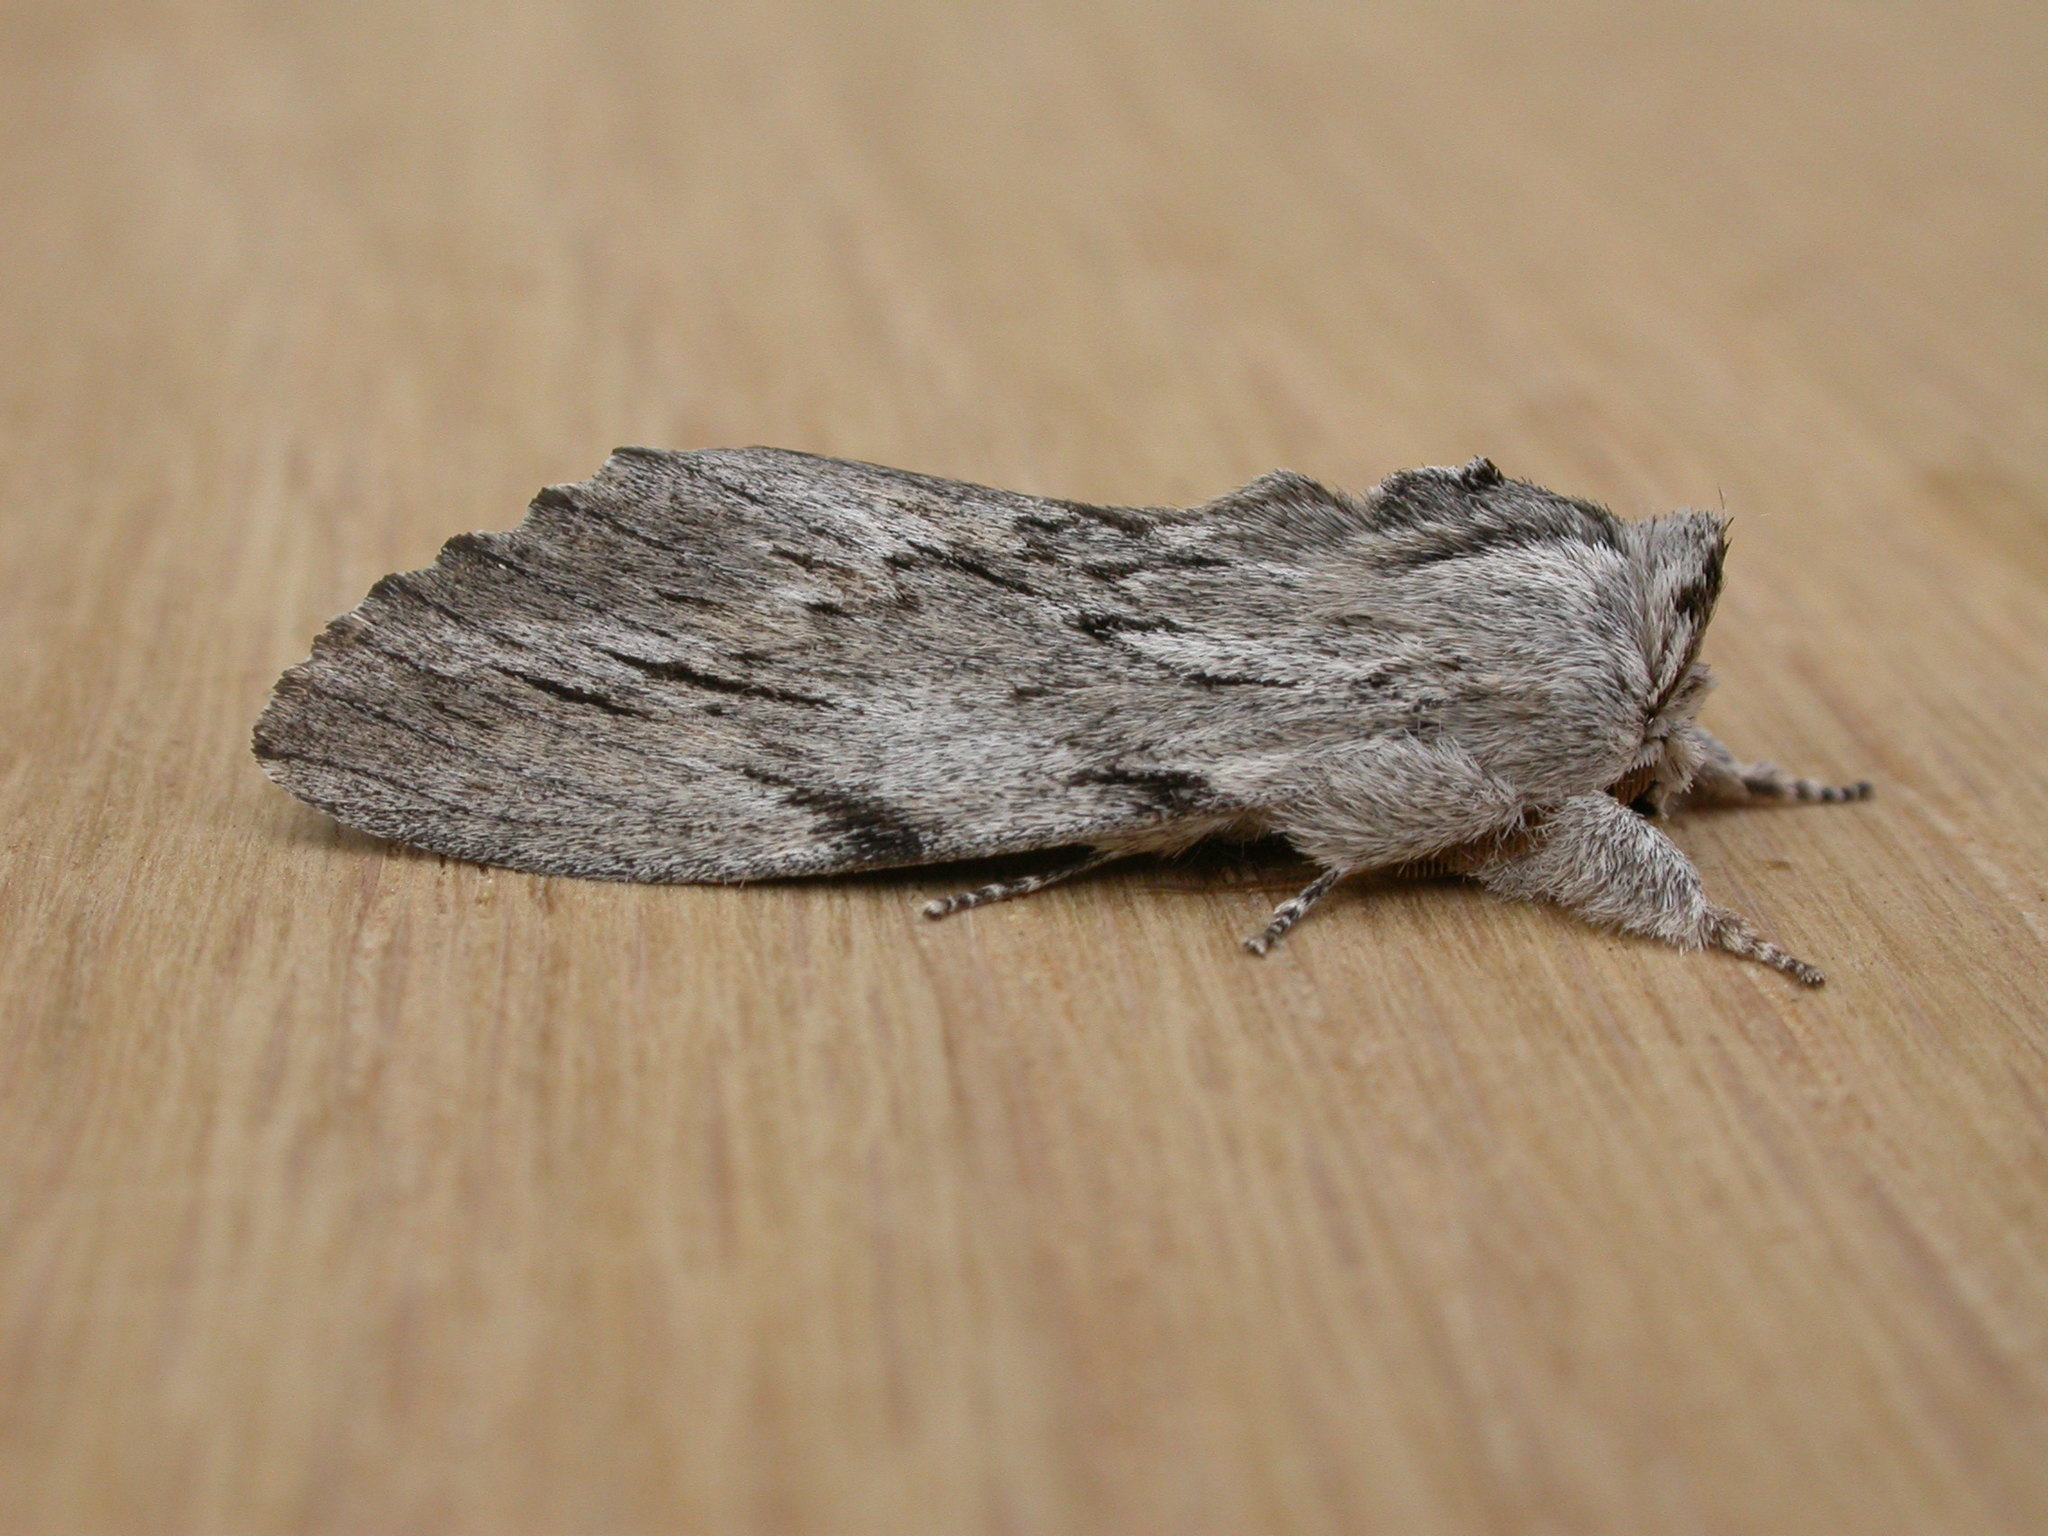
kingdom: Animalia
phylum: Arthropoda
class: Insecta
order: Lepidoptera
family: Notodontidae
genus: Destolmia
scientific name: Destolmia lineata
